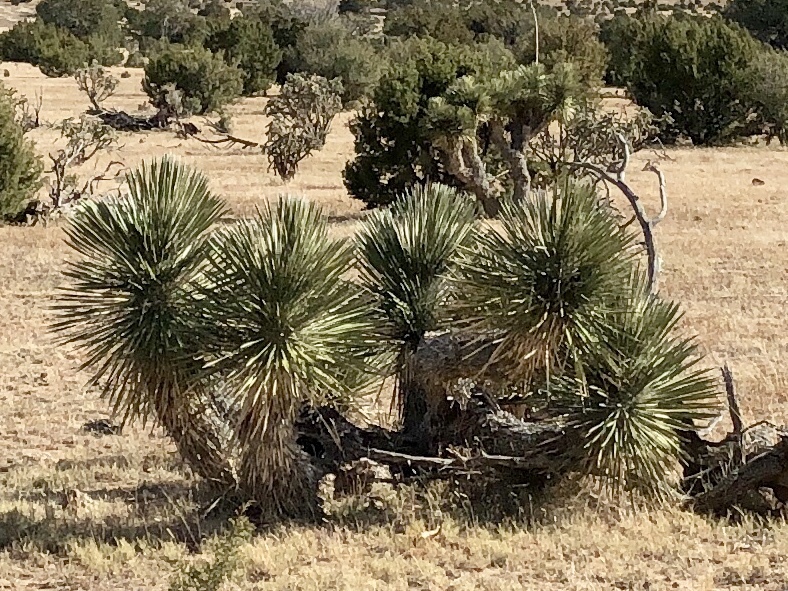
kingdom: Plantae
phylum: Tracheophyta
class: Liliopsida
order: Asparagales
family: Asparagaceae
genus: Yucca
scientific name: Yucca elata
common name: Palmella
